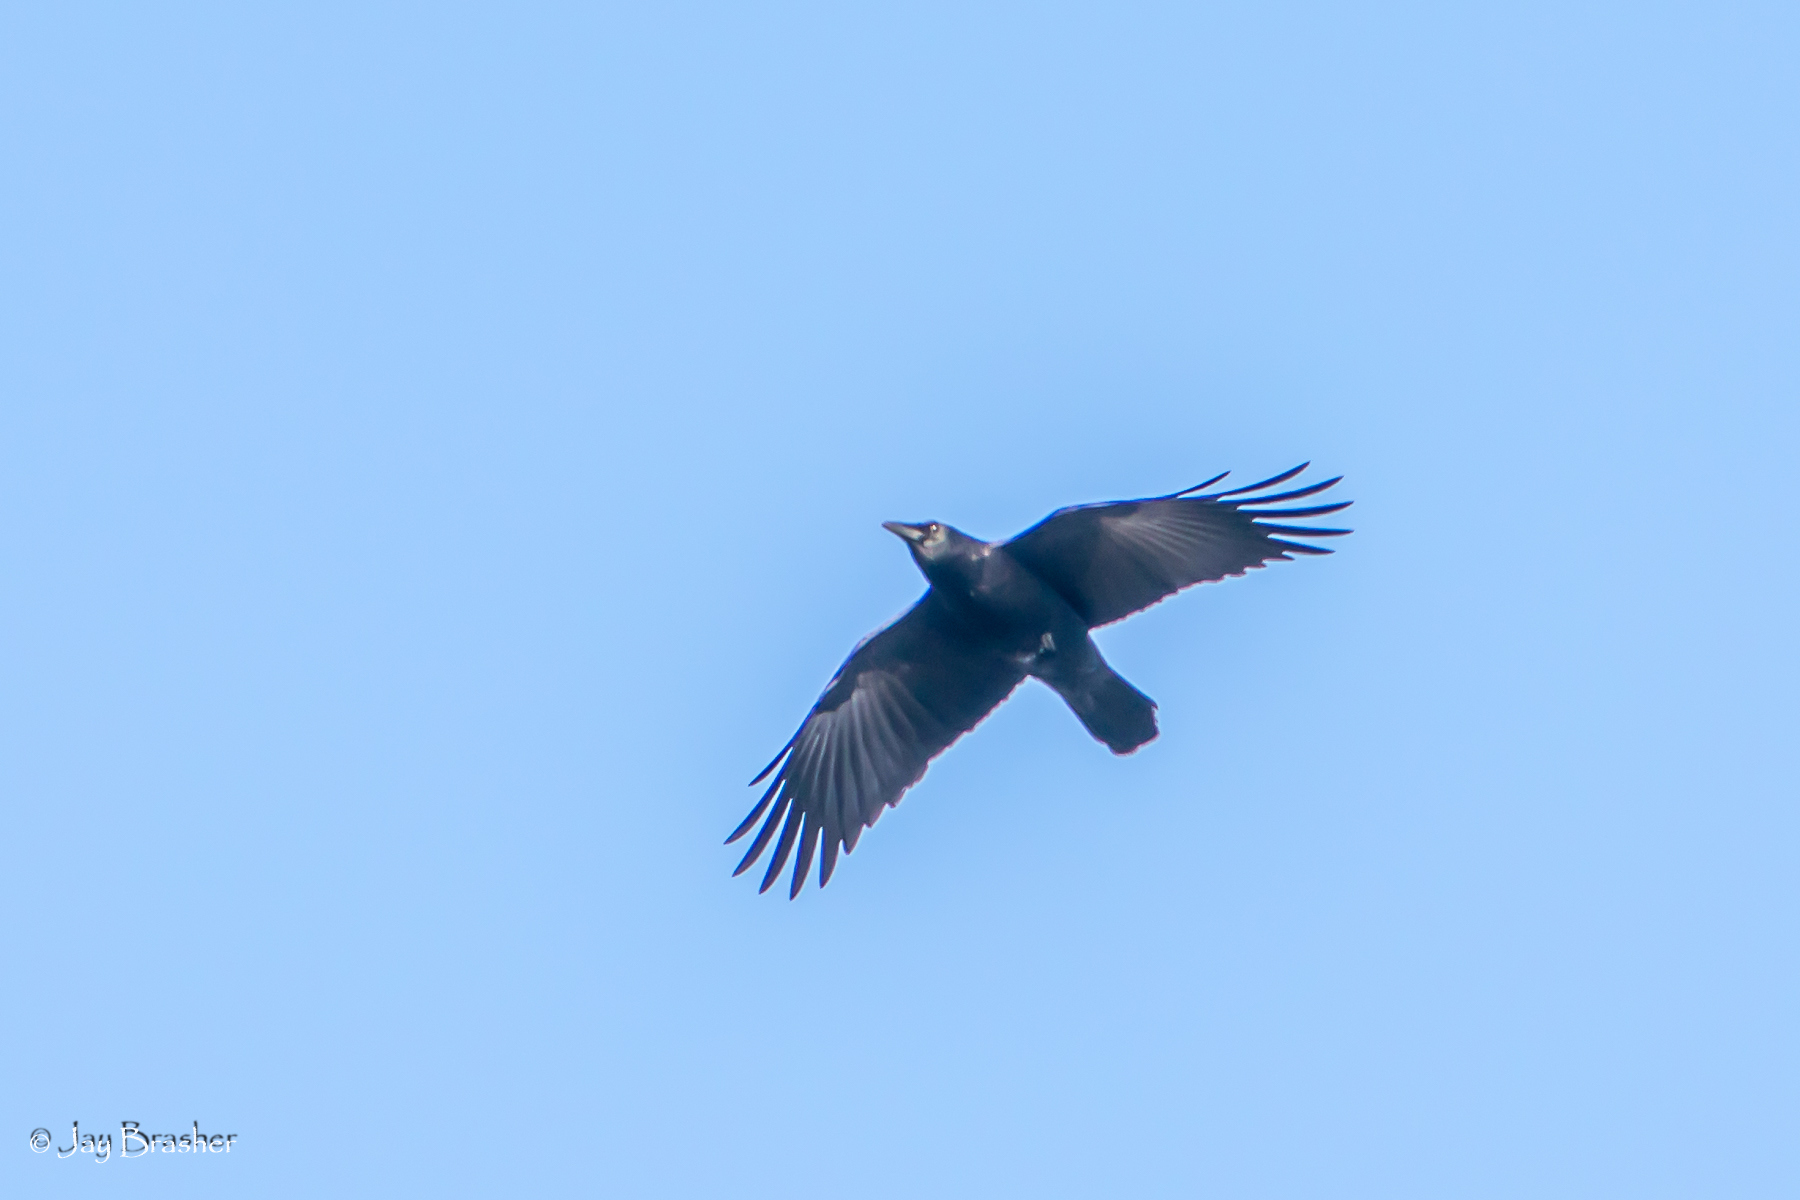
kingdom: Animalia
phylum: Chordata
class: Aves
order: Passeriformes
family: Corvidae
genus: Corvus
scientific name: Corvus brachyrhynchos
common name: American crow
